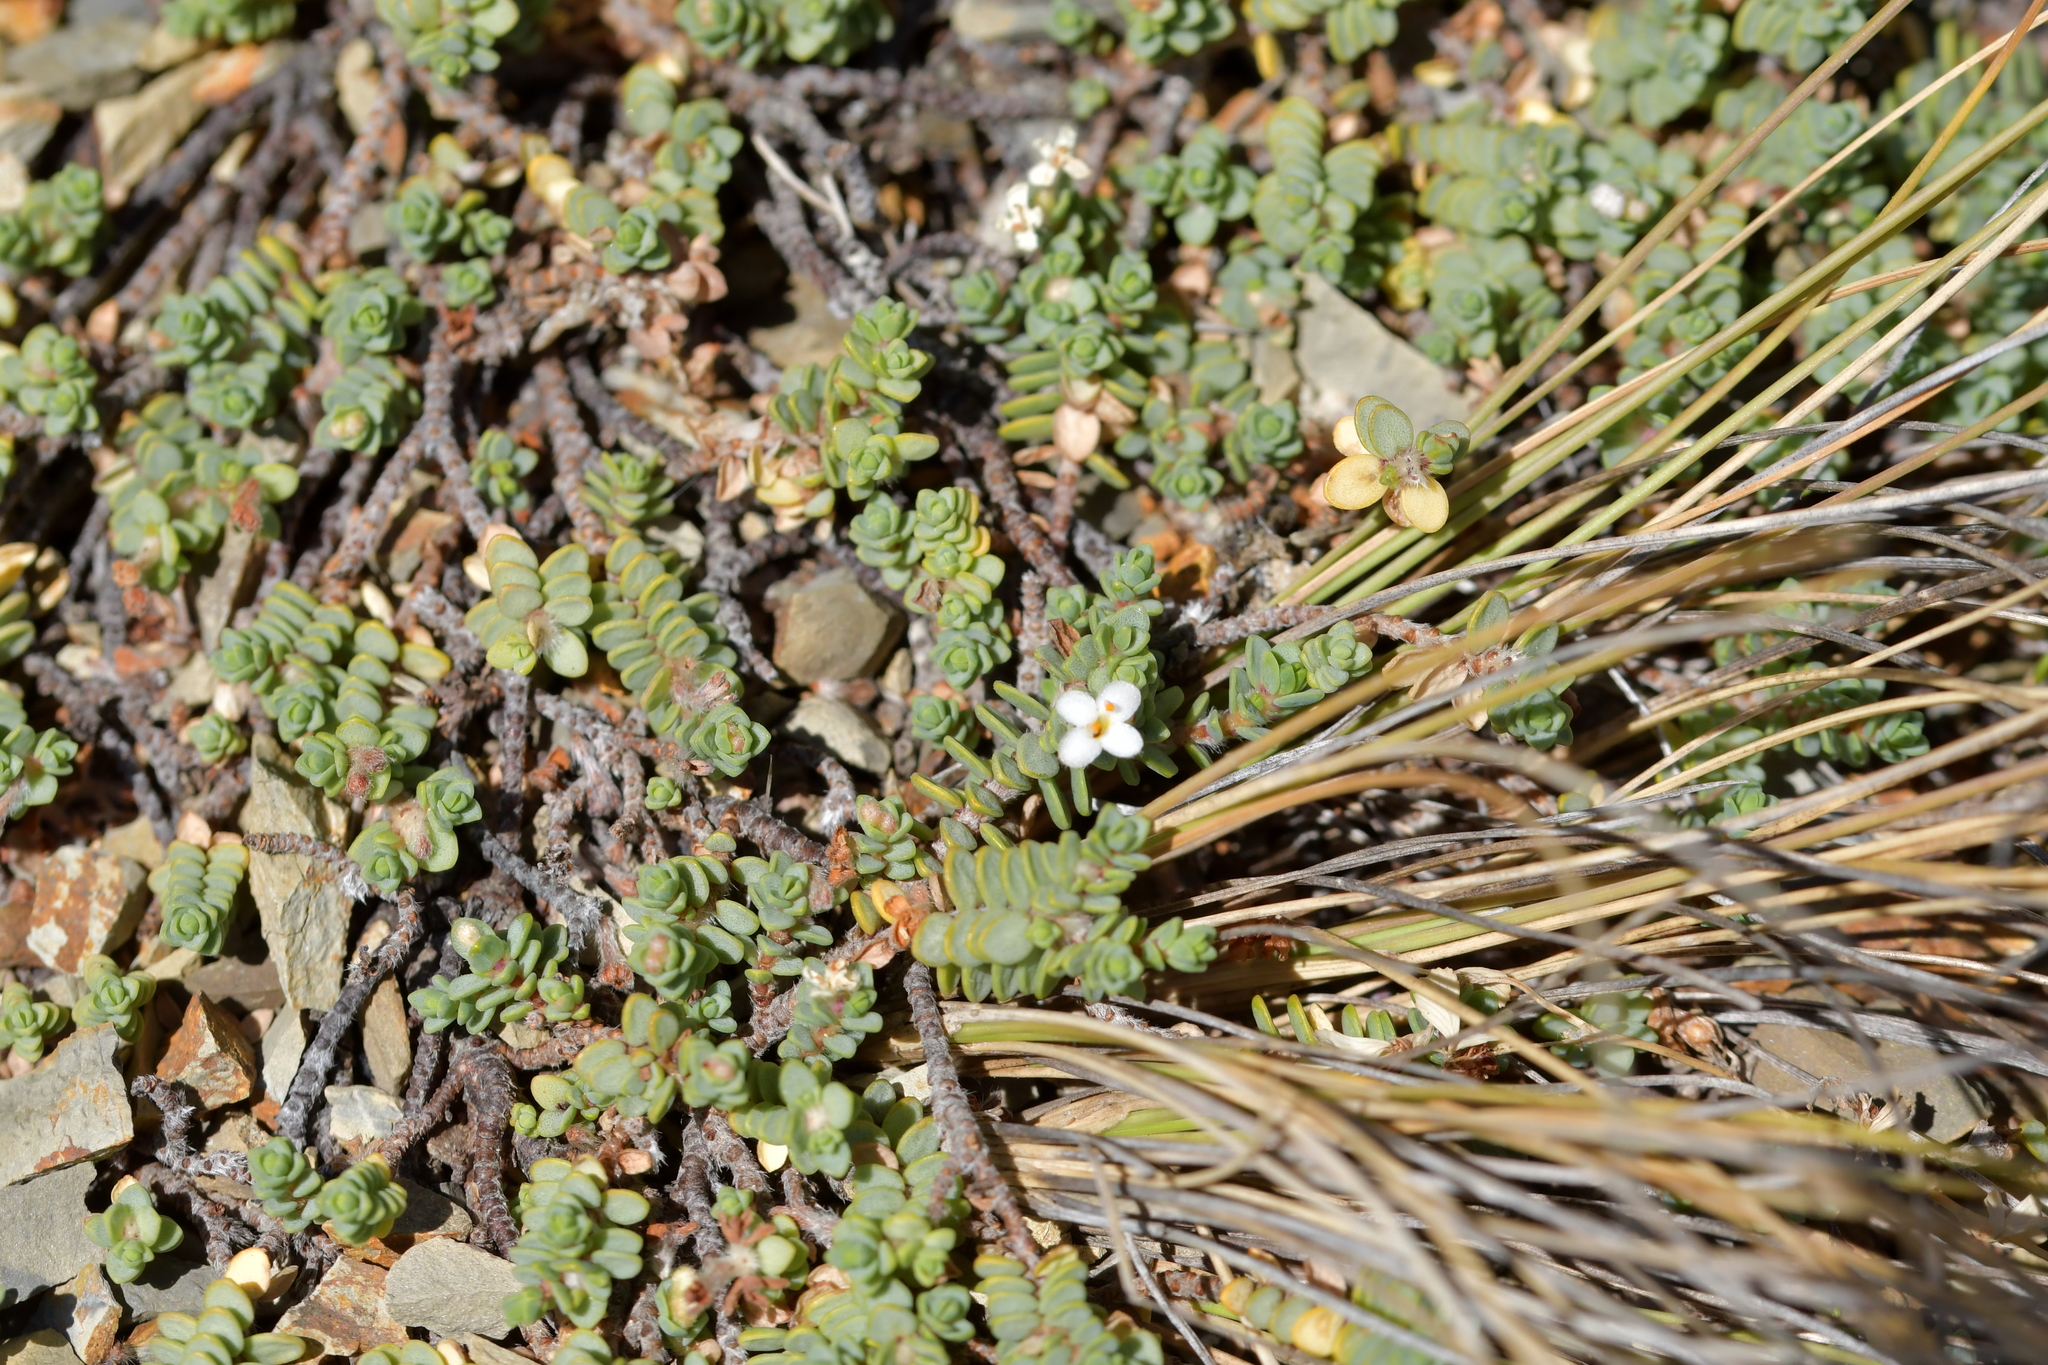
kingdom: Plantae
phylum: Tracheophyta
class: Magnoliopsida
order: Malvales
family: Thymelaeaceae
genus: Pimelea
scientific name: Pimelea carnosa
